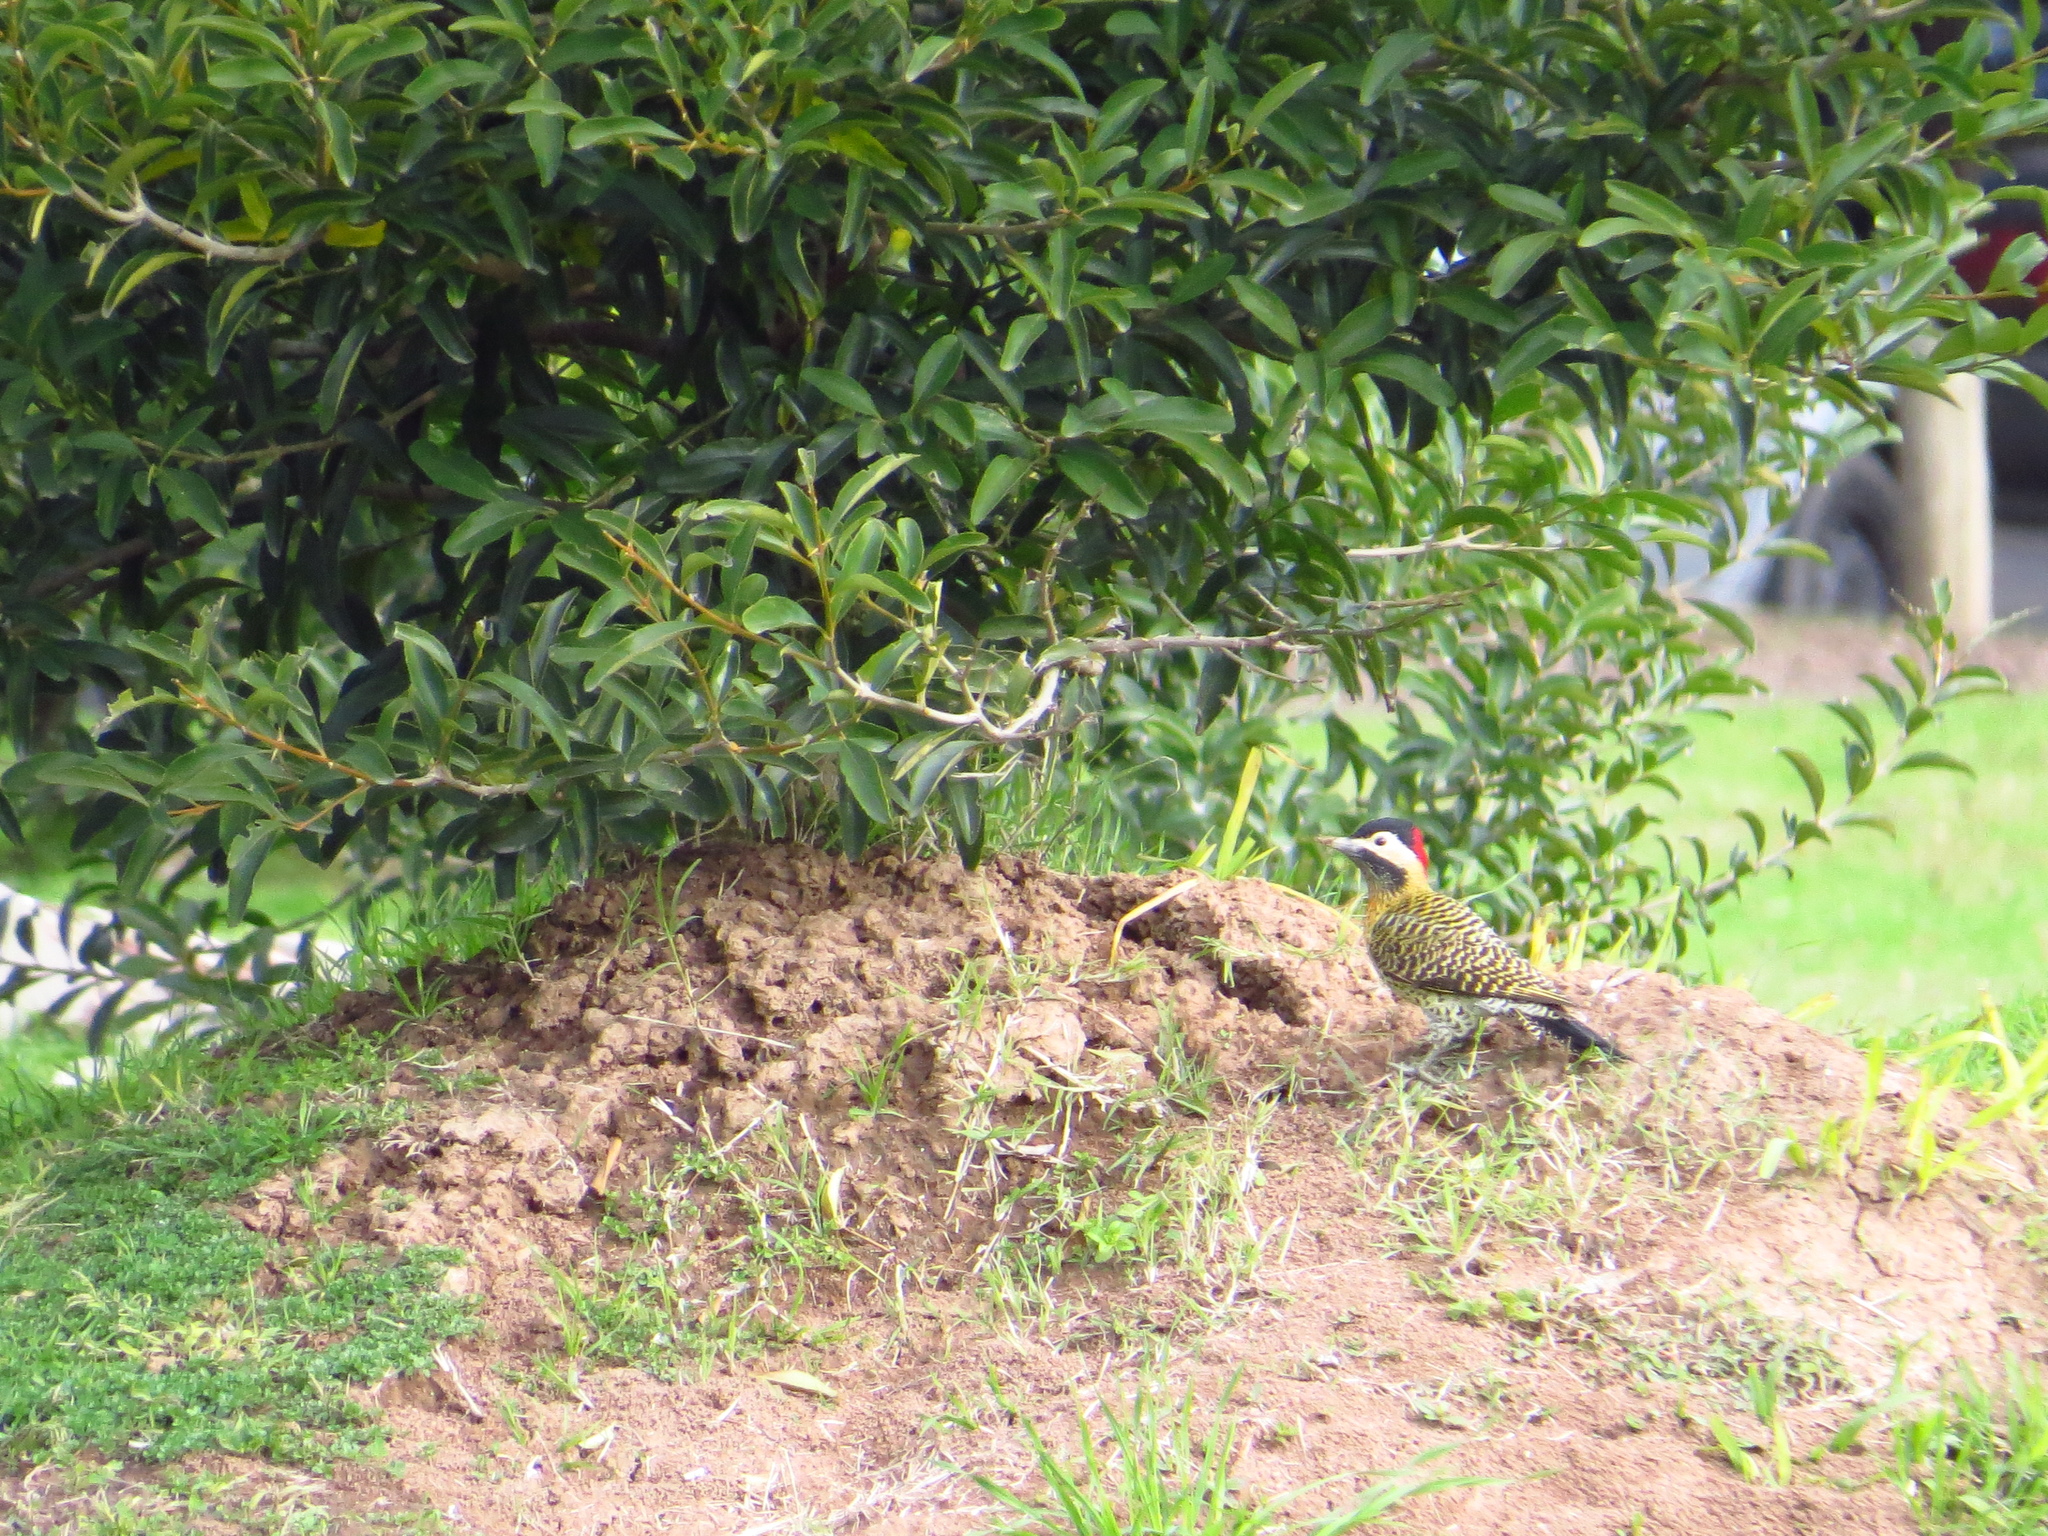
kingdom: Animalia
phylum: Chordata
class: Aves
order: Piciformes
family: Picidae
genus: Colaptes
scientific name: Colaptes melanochloros
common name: Green-barred woodpecker
